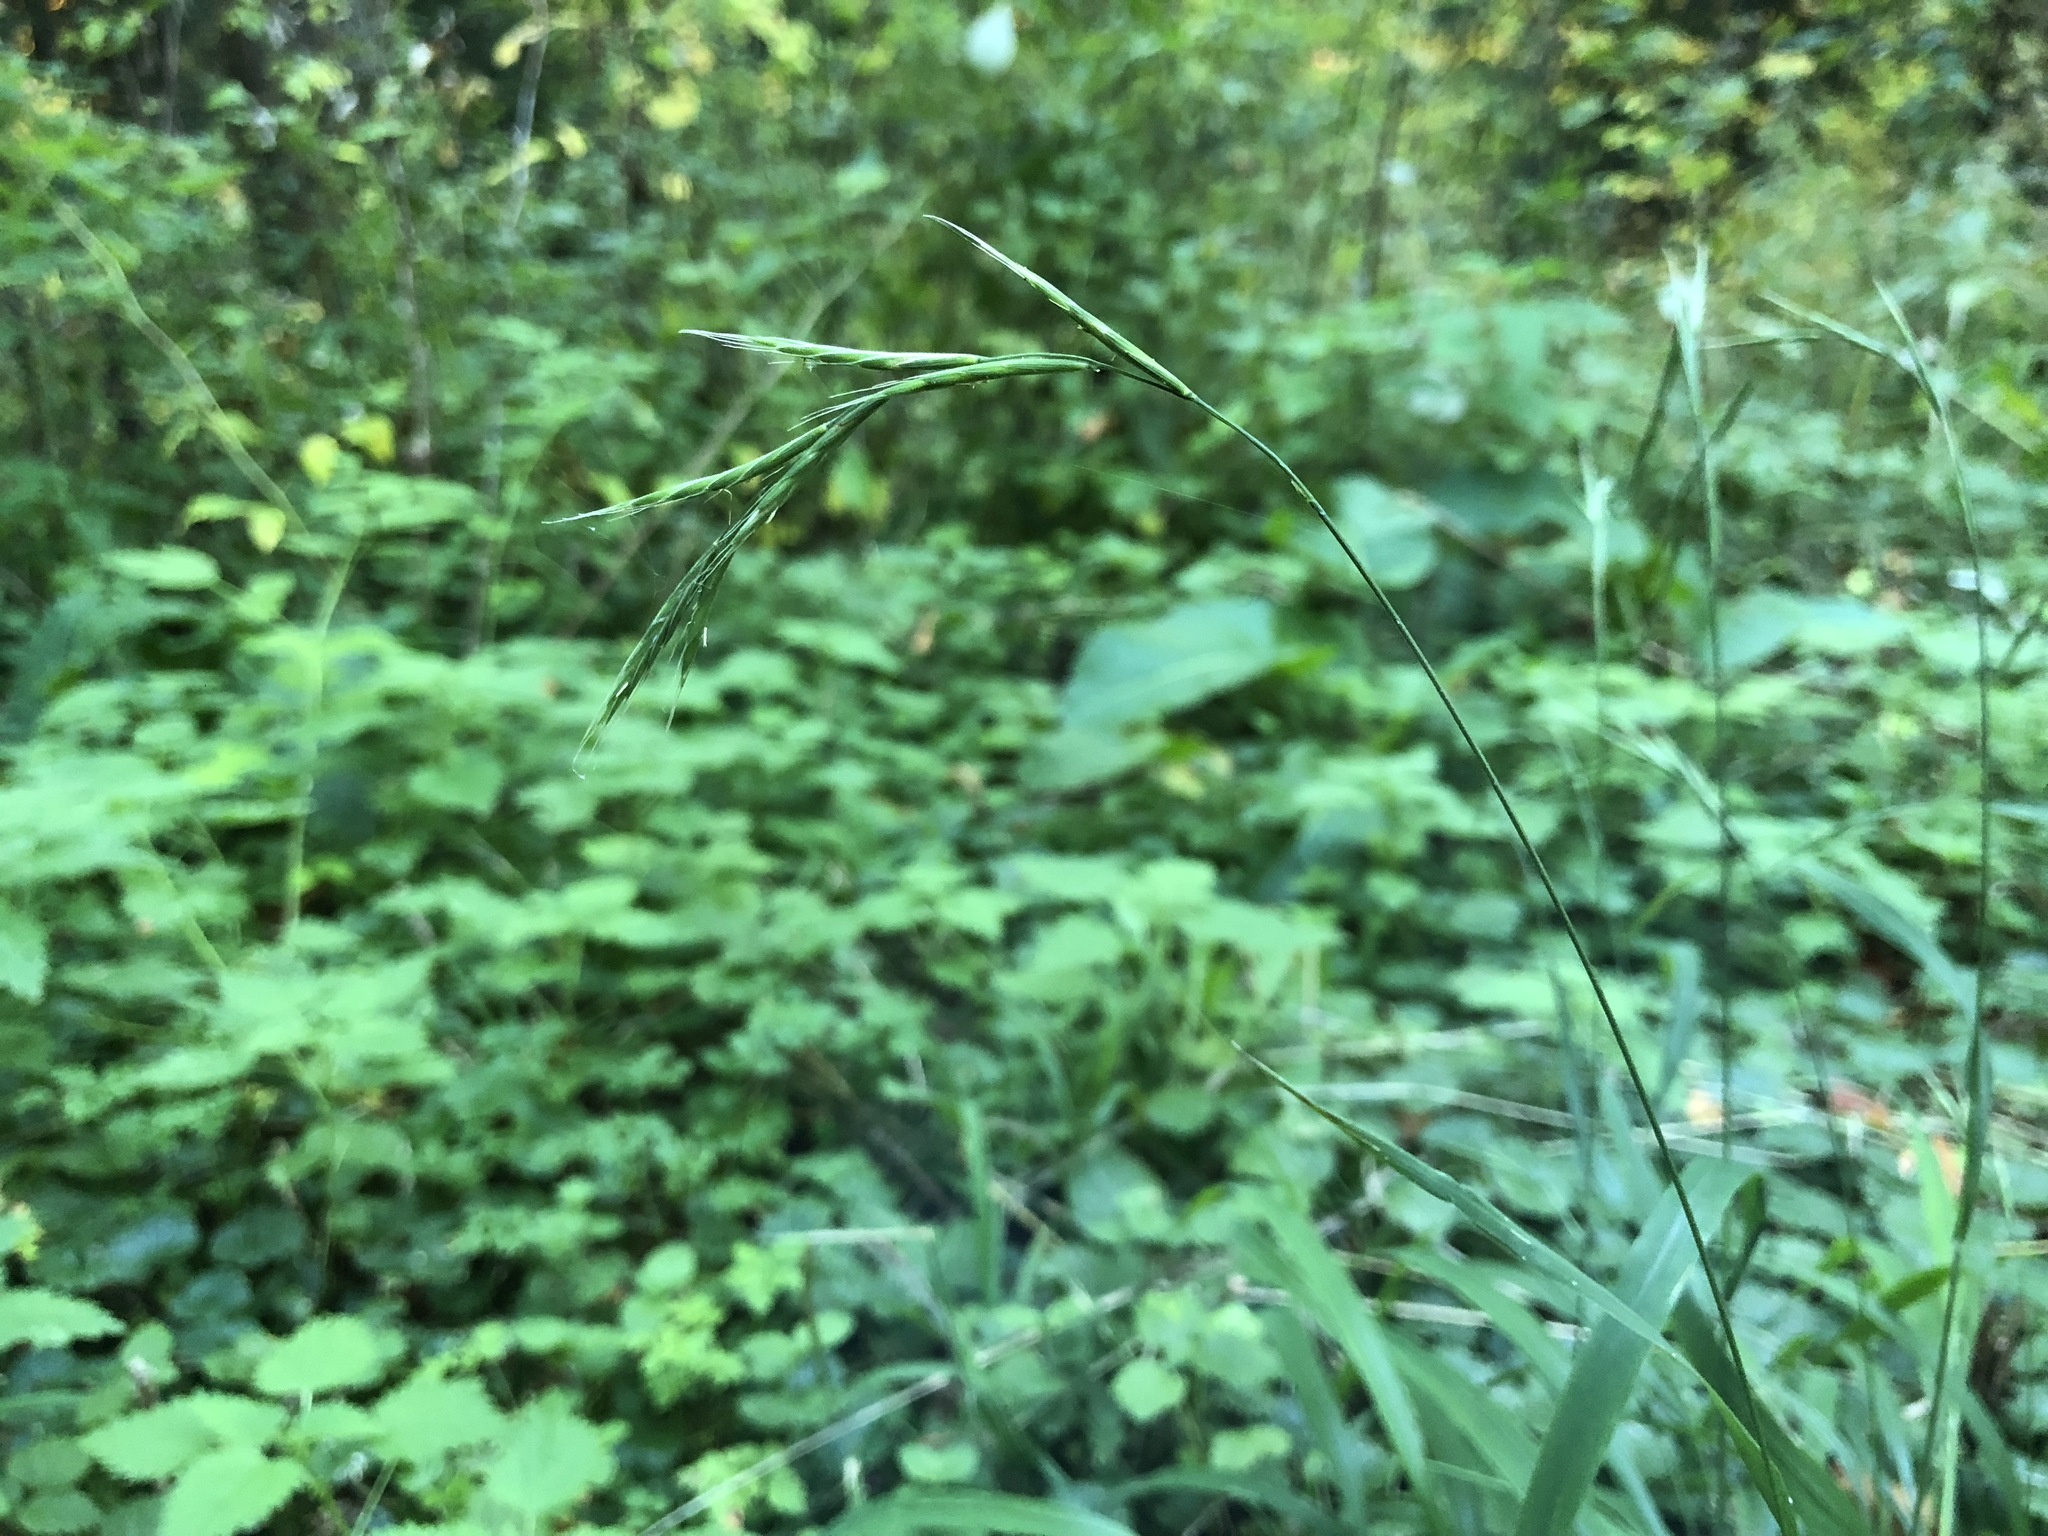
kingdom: Plantae
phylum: Tracheophyta
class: Liliopsida
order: Poales
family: Poaceae
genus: Brachypodium
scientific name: Brachypodium sylvaticum
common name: False-brome
